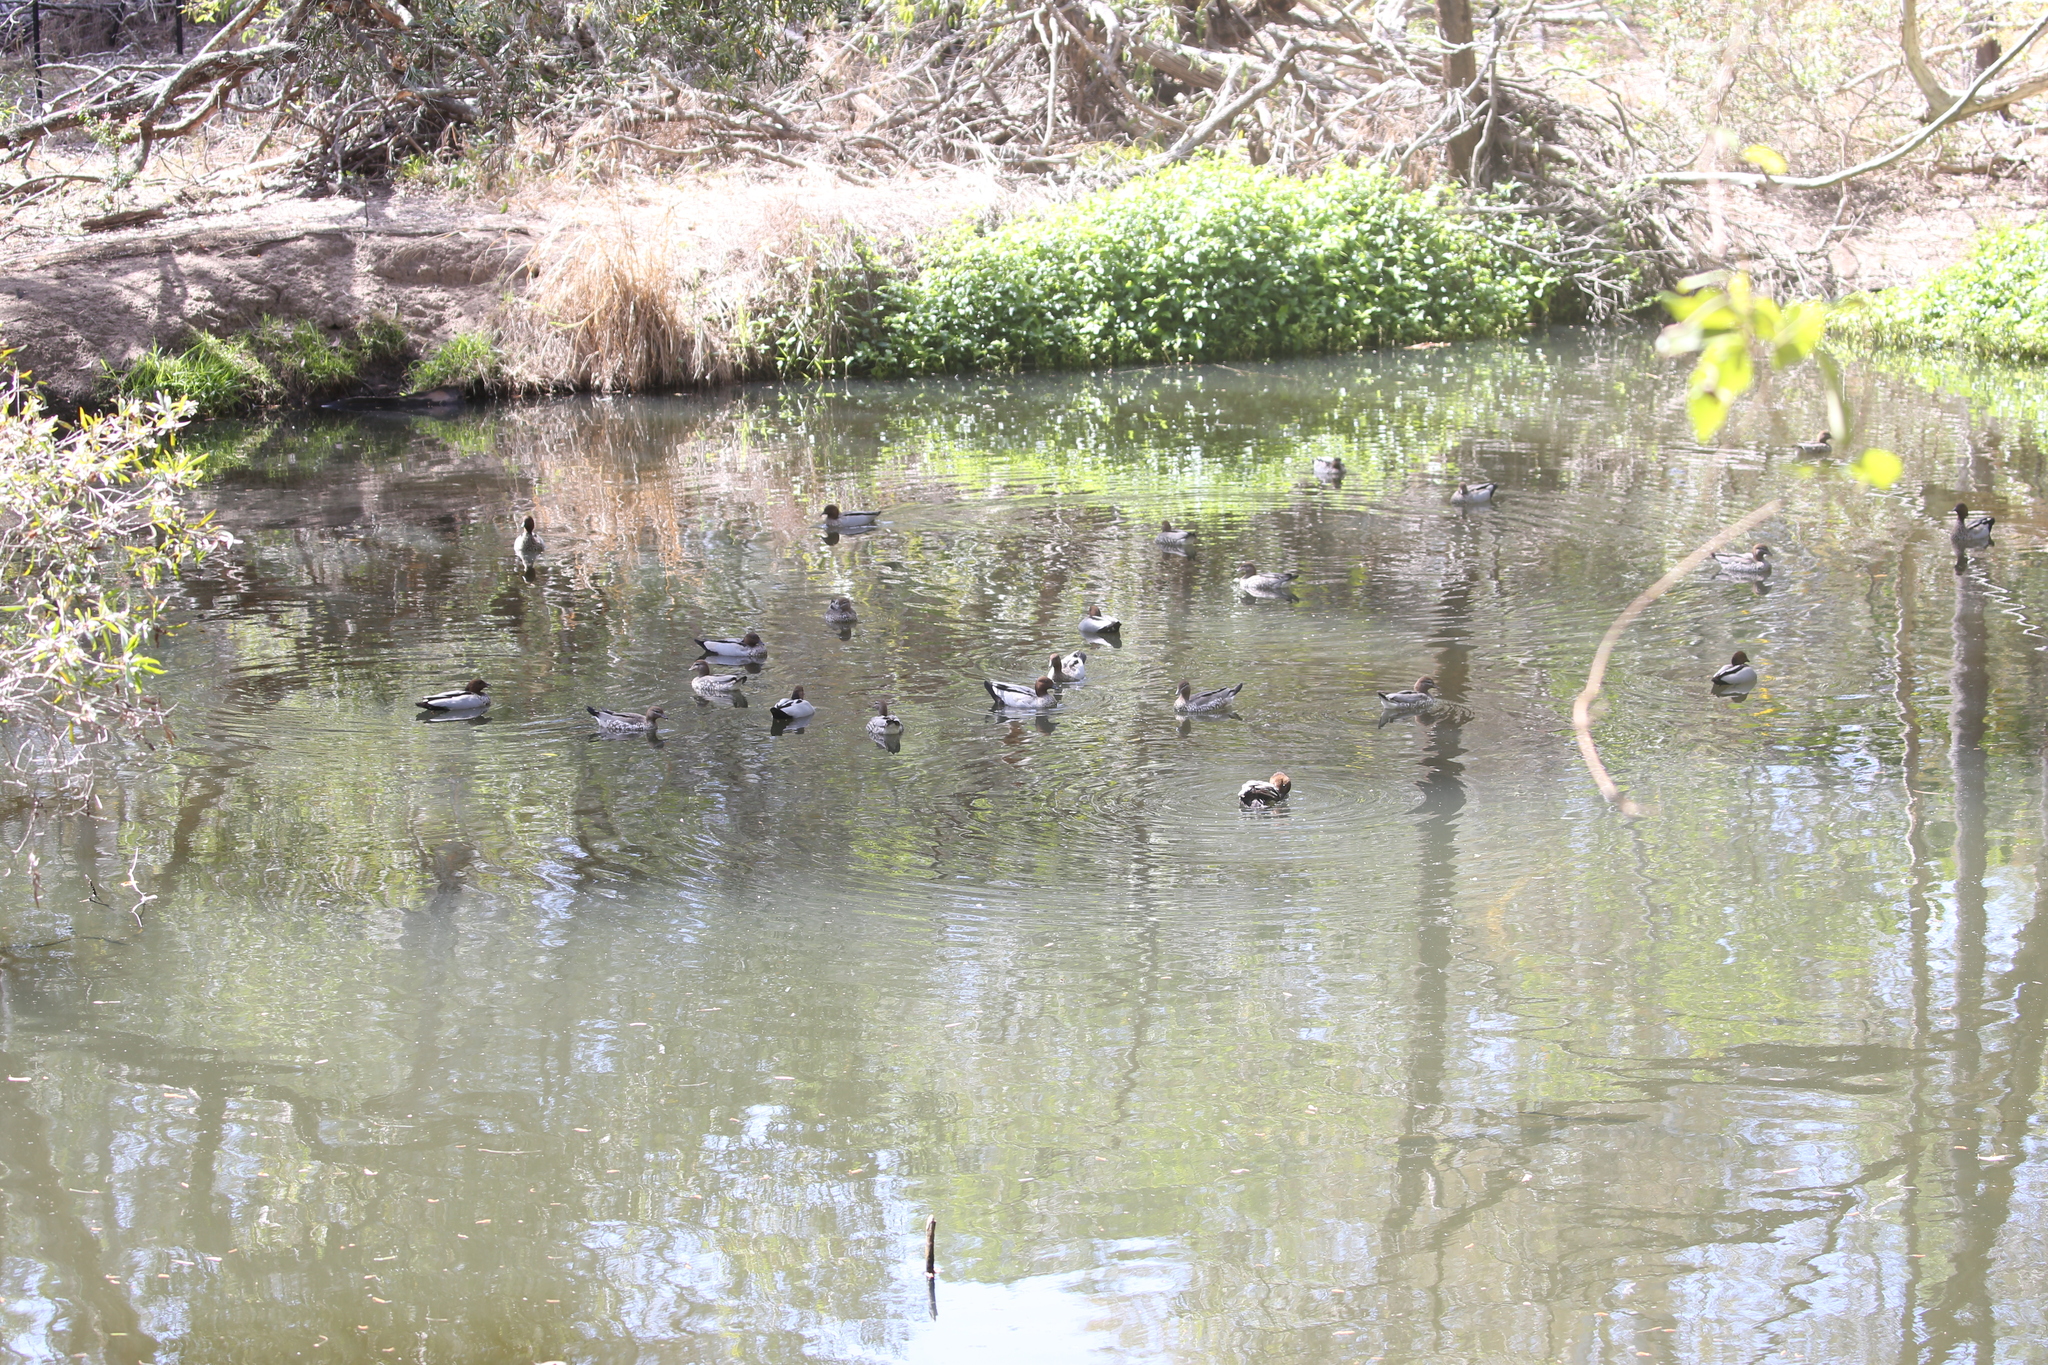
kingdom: Animalia
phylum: Chordata
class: Aves
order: Anseriformes
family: Anatidae
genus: Chenonetta
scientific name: Chenonetta jubata
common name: Maned duck
